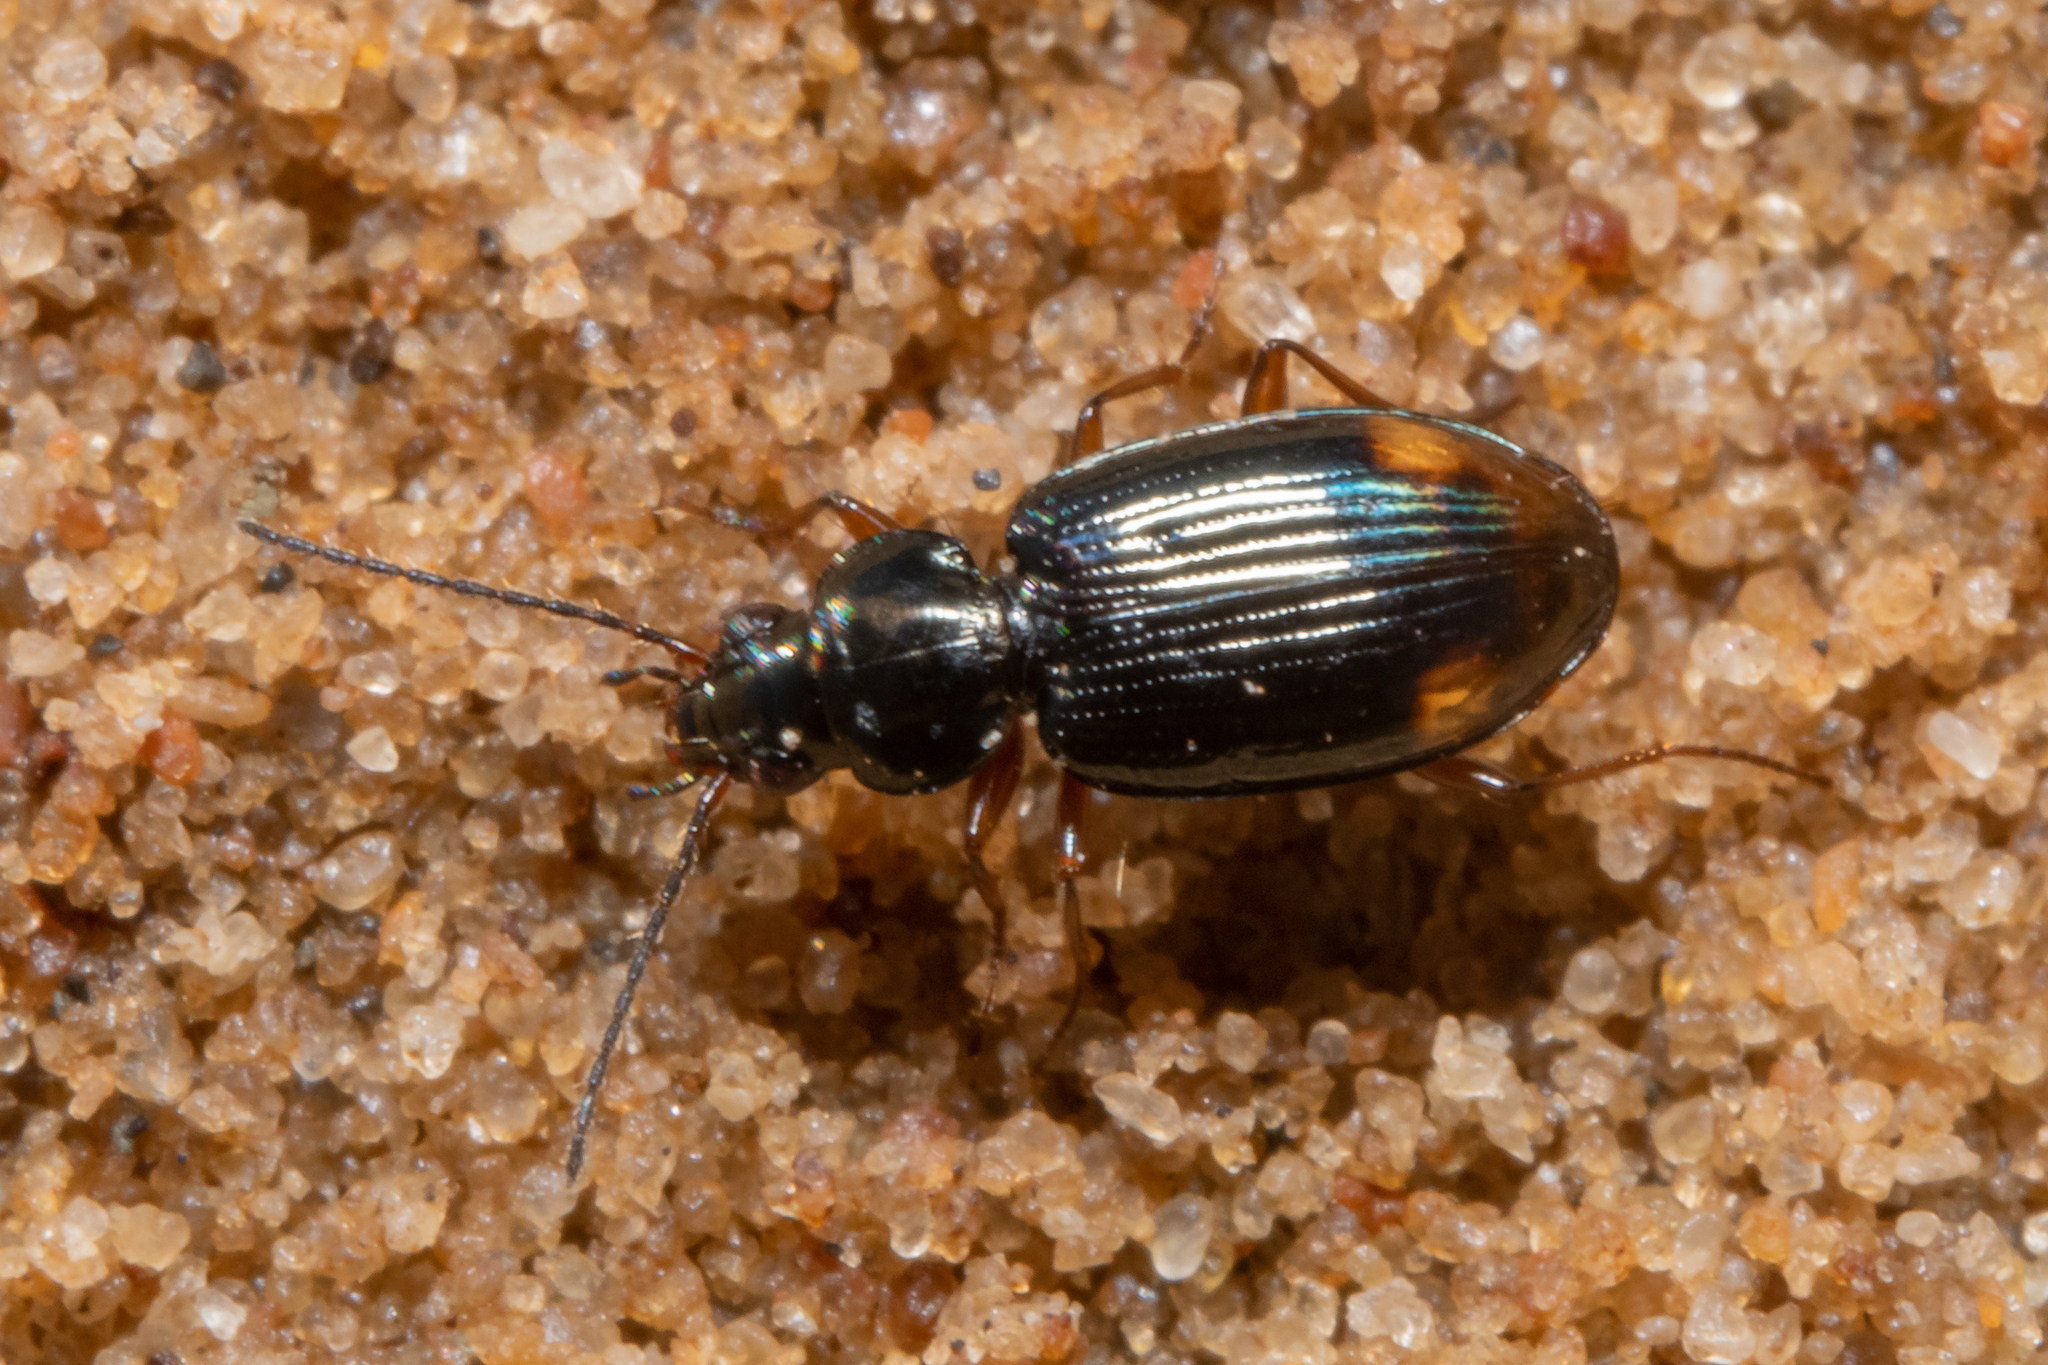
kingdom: Animalia
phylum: Arthropoda
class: Insecta
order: Coleoptera
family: Carabidae
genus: Bembidion
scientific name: Bembidion biguttatum
